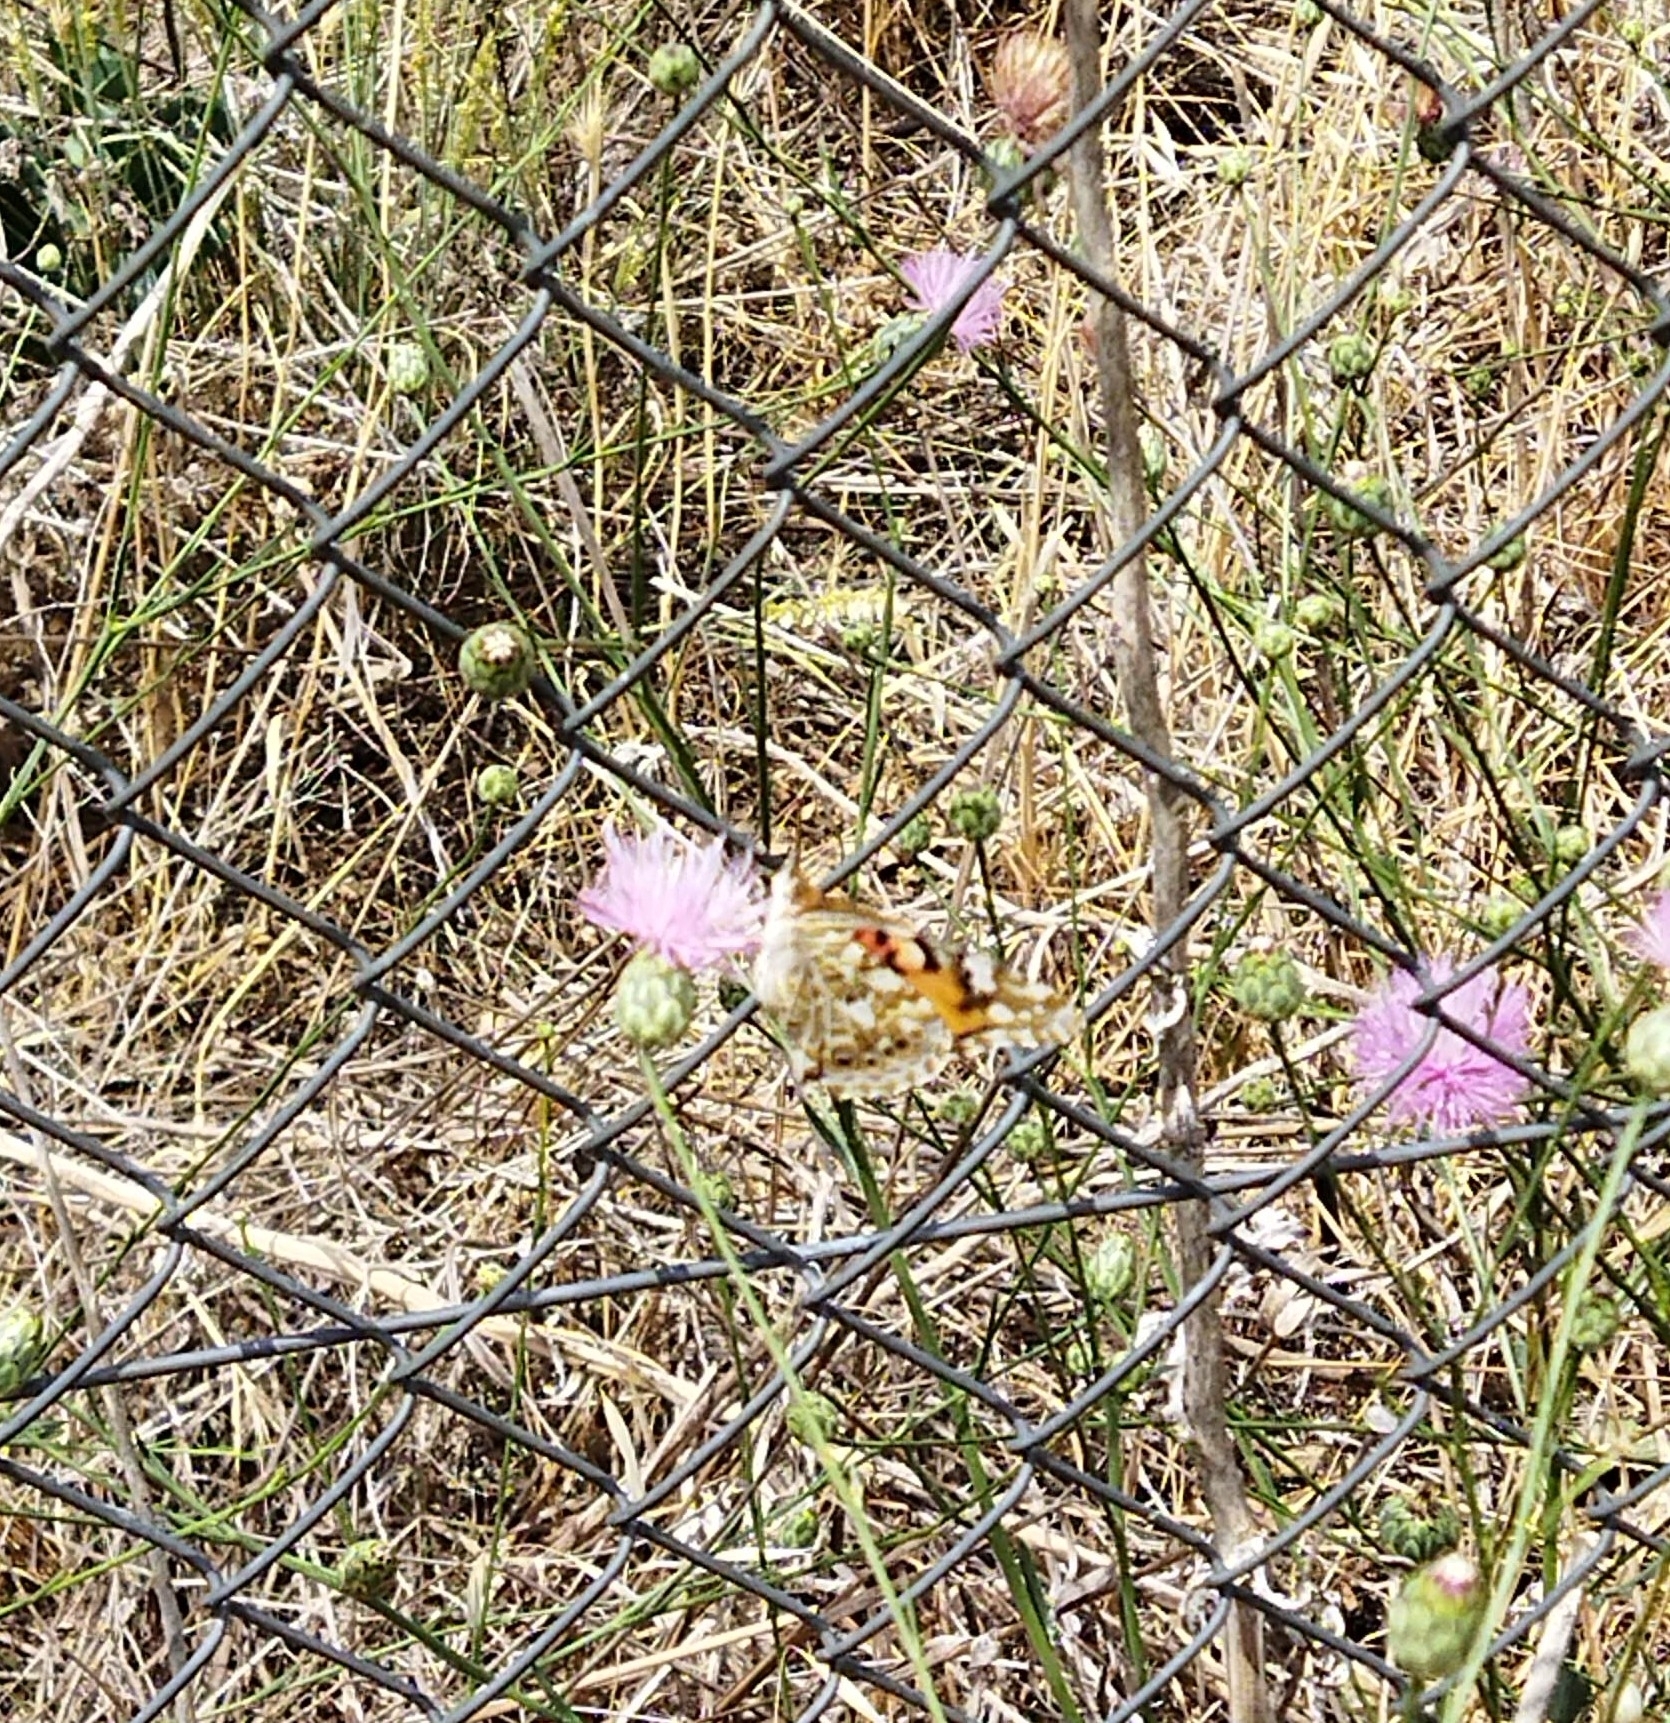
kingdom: Animalia
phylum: Arthropoda
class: Insecta
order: Lepidoptera
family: Nymphalidae
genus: Vanessa
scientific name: Vanessa cardui
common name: Painted lady
